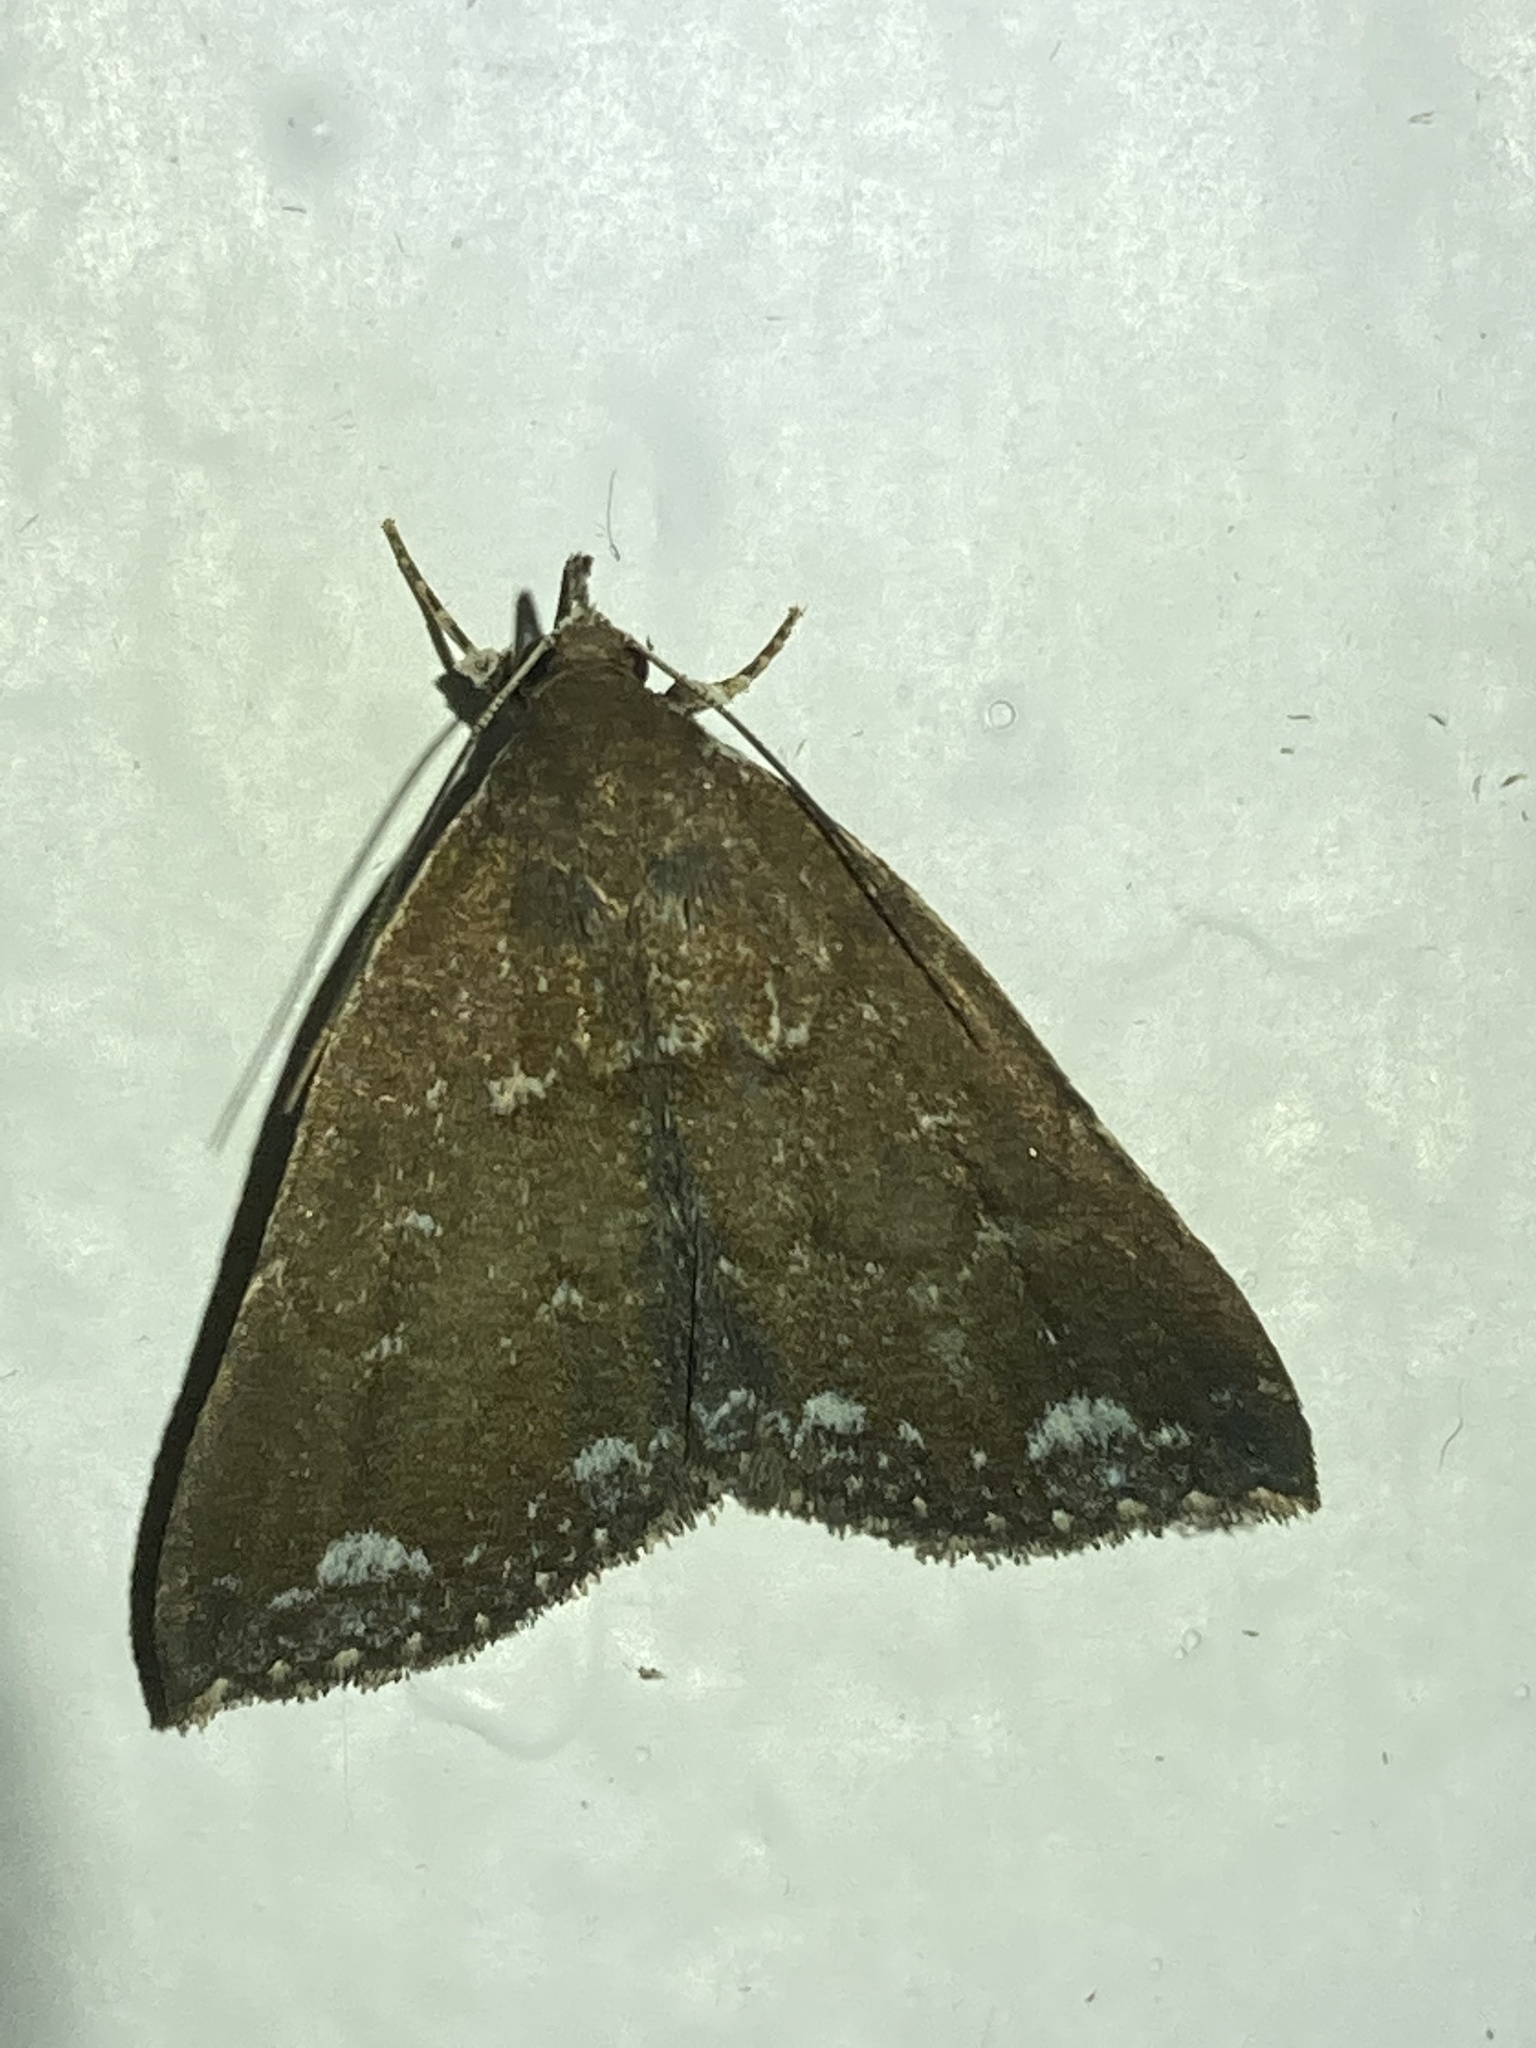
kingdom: Animalia
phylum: Arthropoda
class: Insecta
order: Lepidoptera
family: Erebidae
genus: Aristaria
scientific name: Aristaria theroalis
